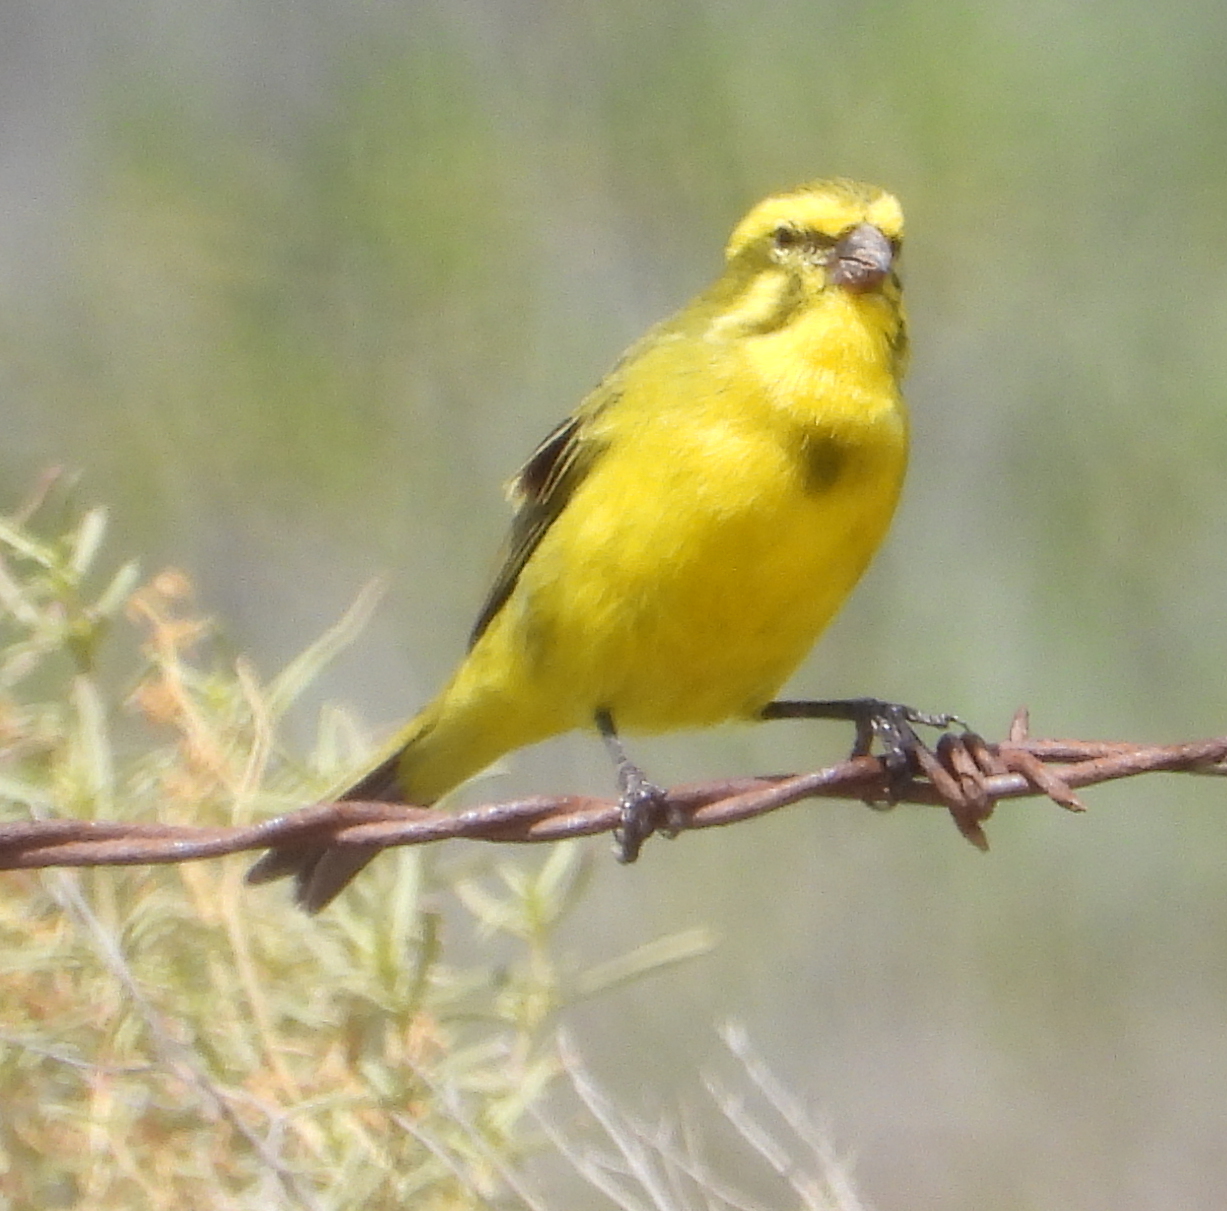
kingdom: Animalia
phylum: Chordata
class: Aves
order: Passeriformes
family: Fringillidae
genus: Crithagra
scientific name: Crithagra flaviventris
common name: Yellow canary
